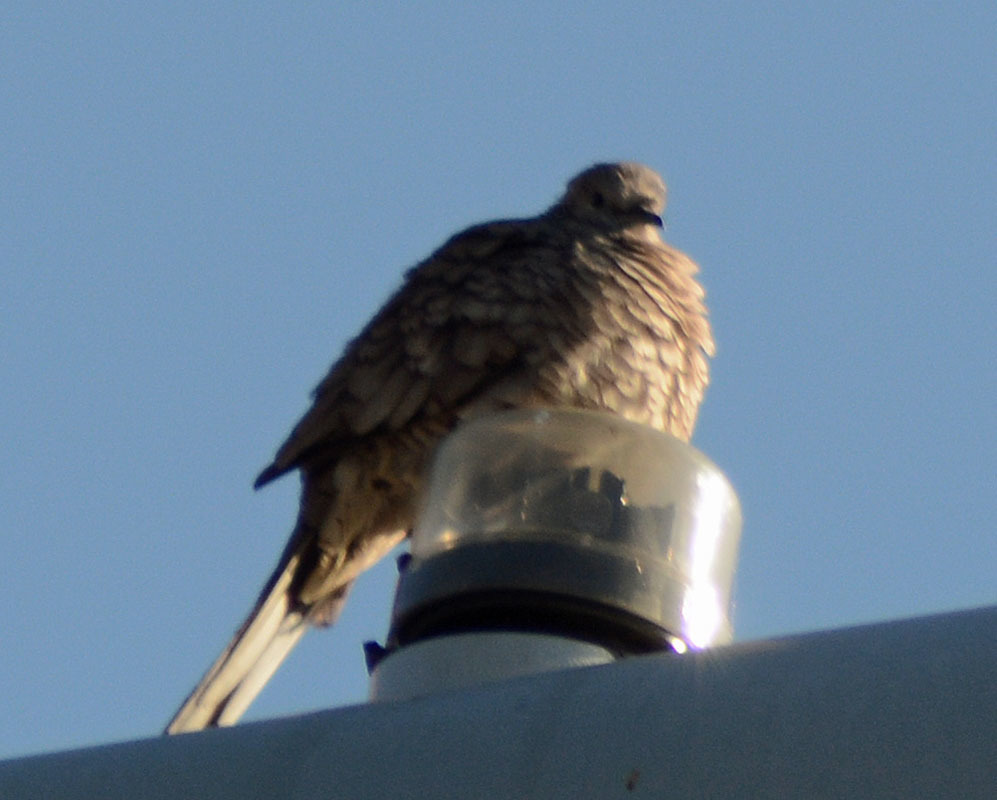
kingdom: Animalia
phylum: Chordata
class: Aves
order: Columbiformes
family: Columbidae
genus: Columbina
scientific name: Columbina inca
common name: Inca dove
